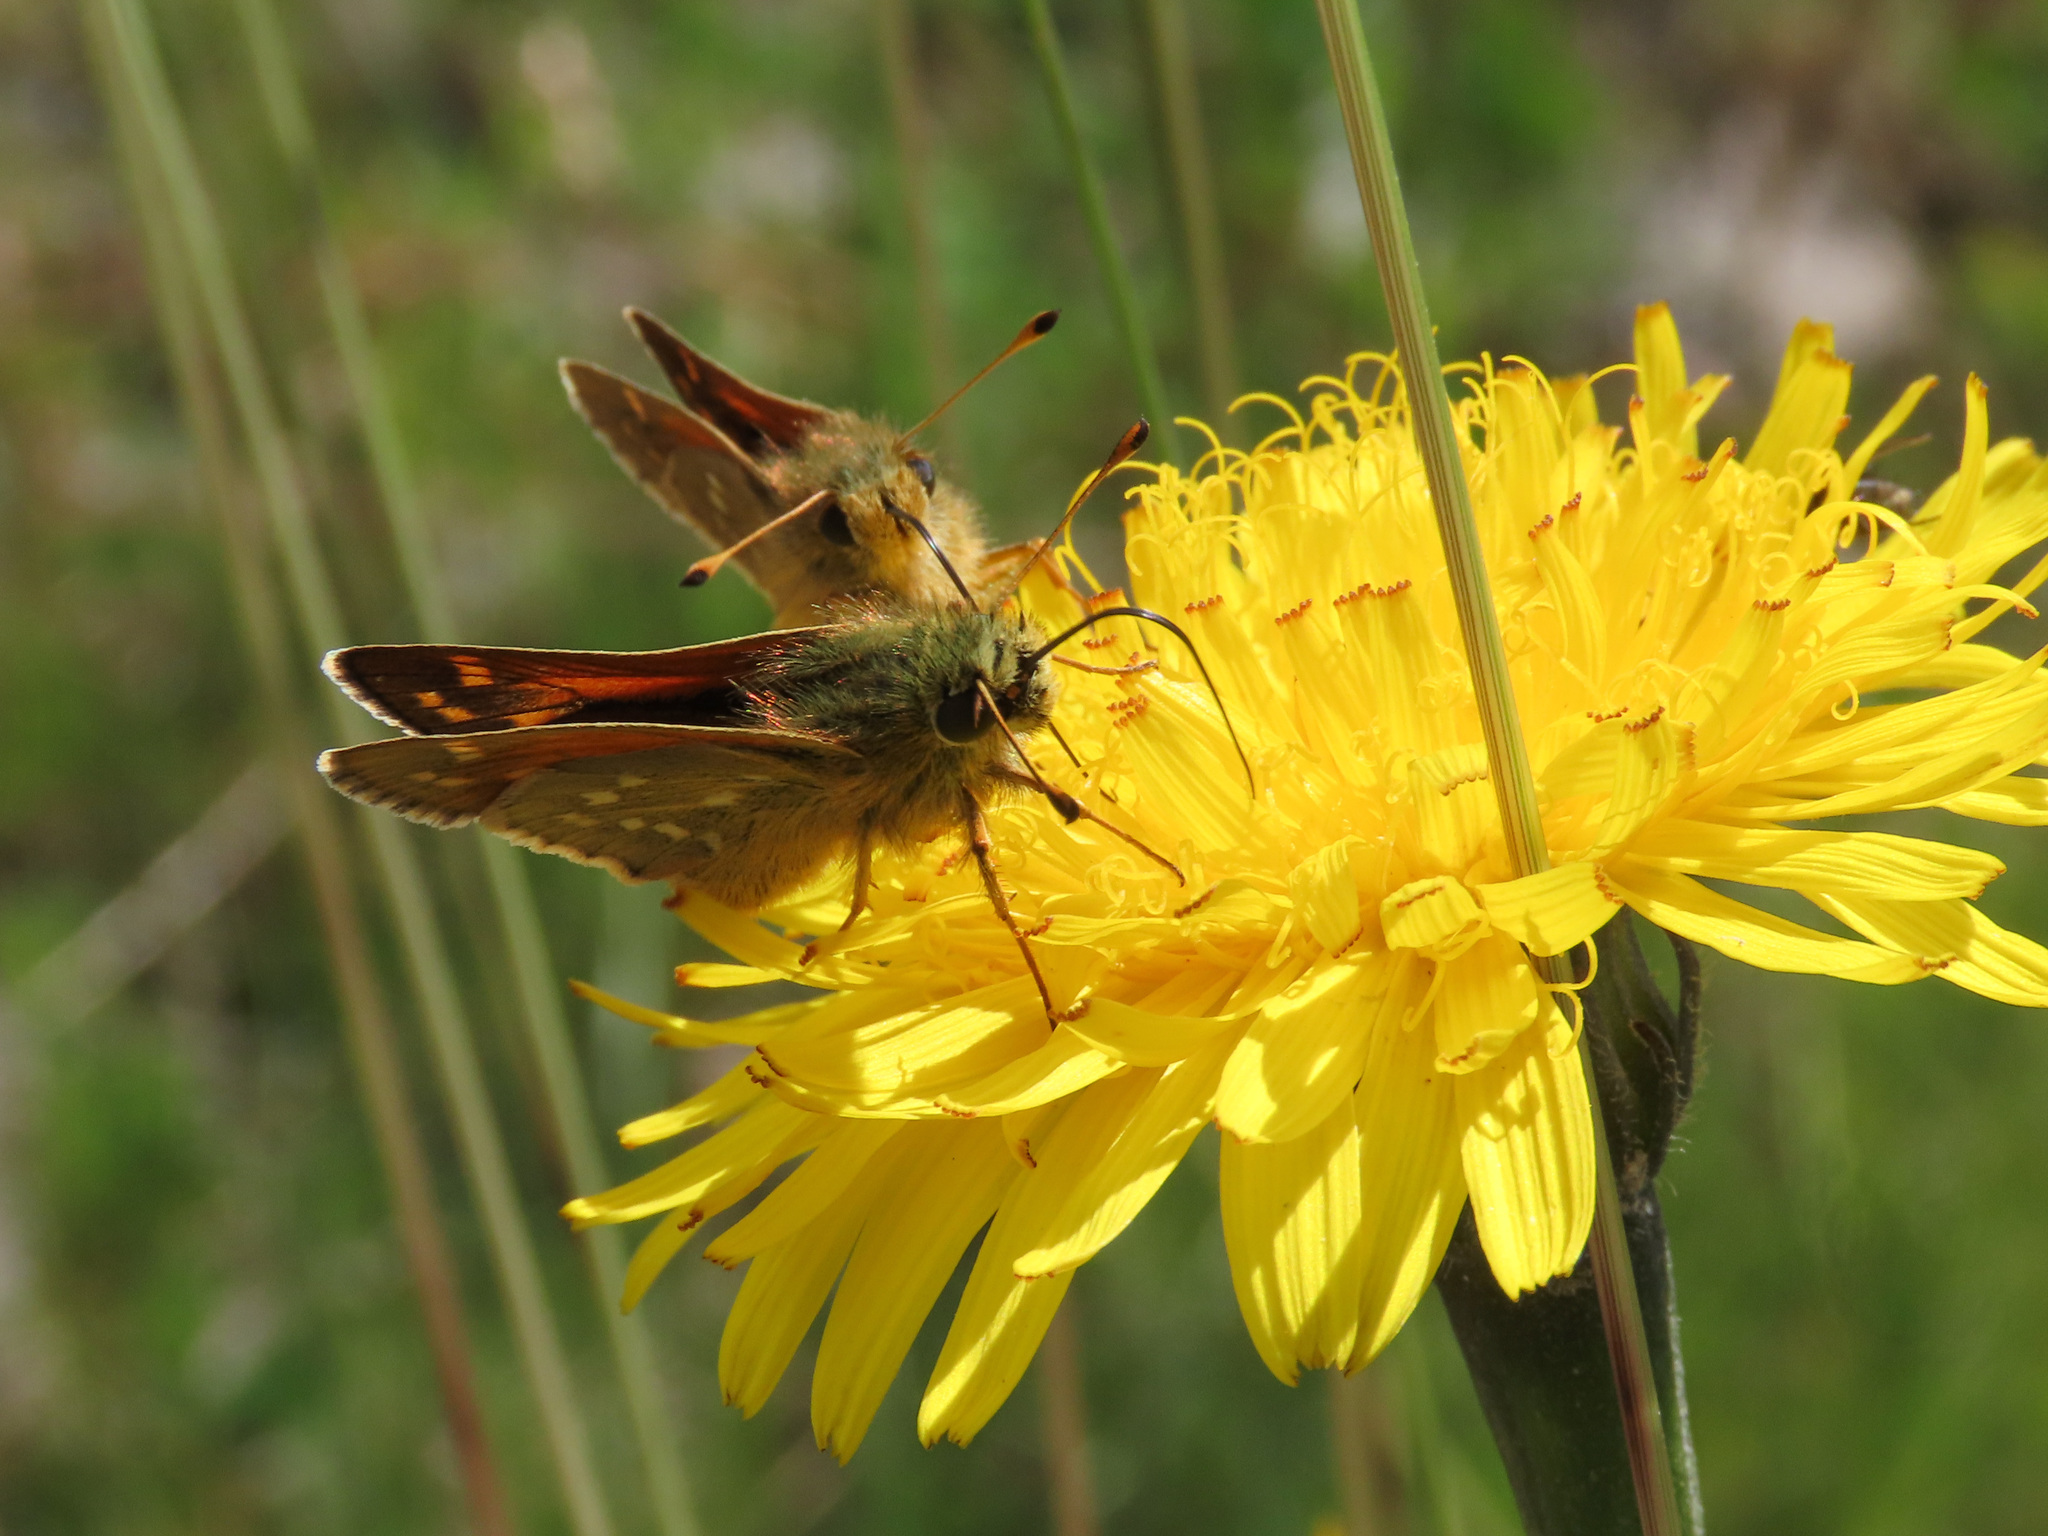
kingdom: Animalia
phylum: Arthropoda
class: Insecta
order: Lepidoptera
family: Hesperiidae
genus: Hesperia
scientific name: Hesperia comma
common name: Common branded skipper
